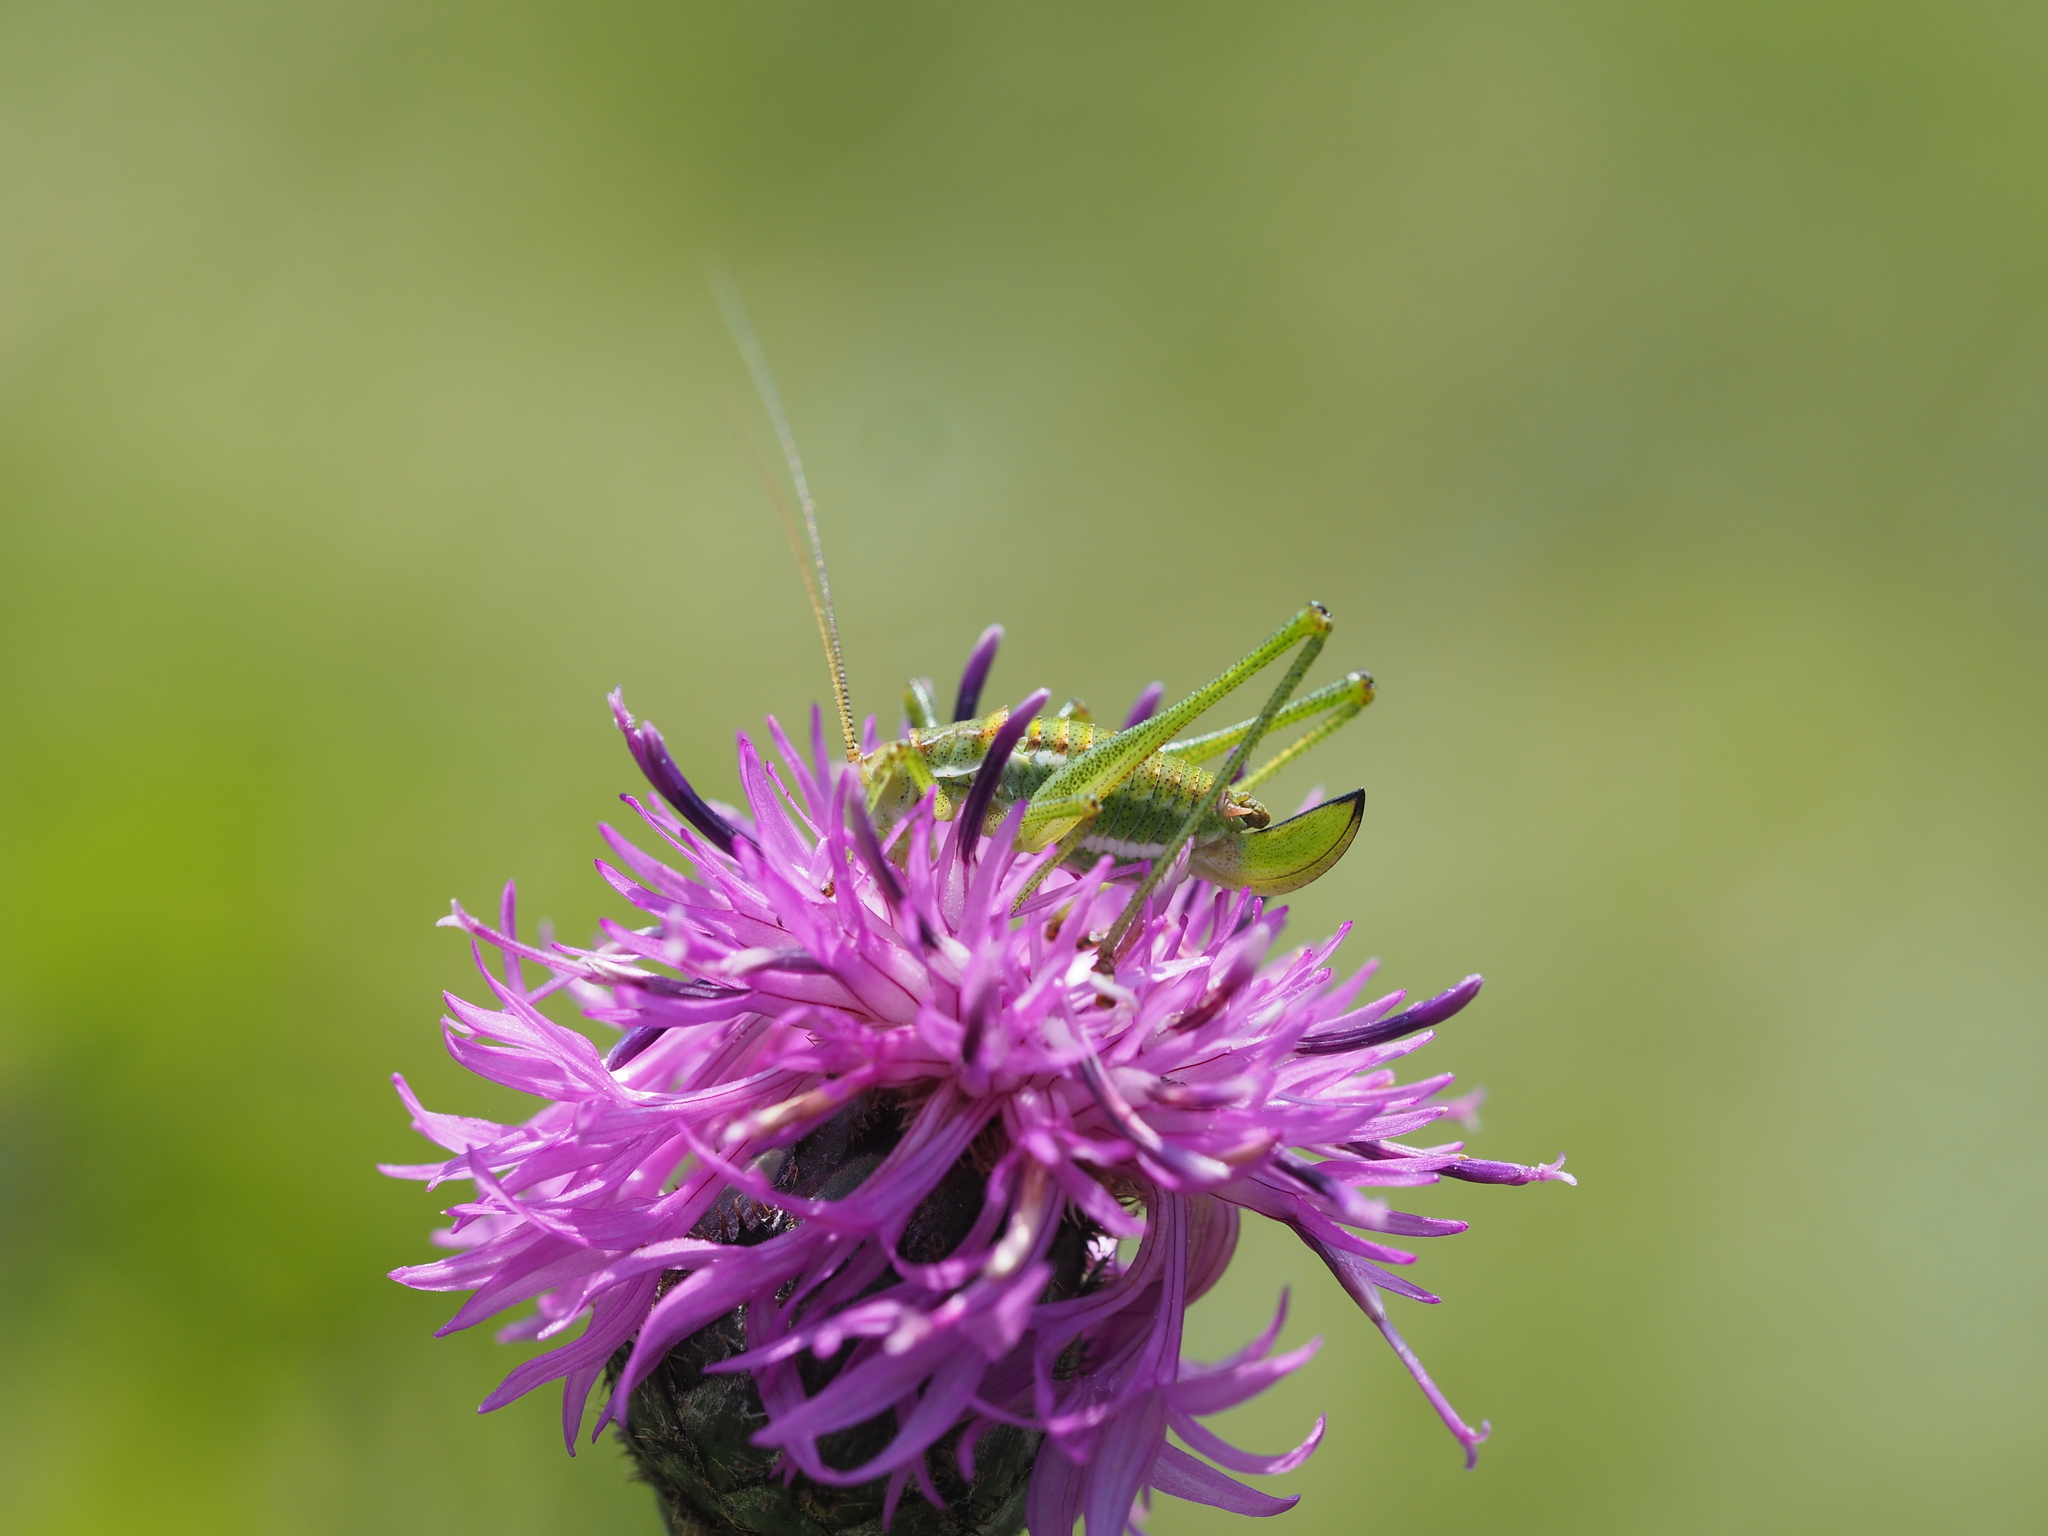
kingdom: Animalia
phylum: Arthropoda
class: Insecta
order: Orthoptera
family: Tettigoniidae
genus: Leptophyes
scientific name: Leptophyes albovittata
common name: Striped bush-cricket
